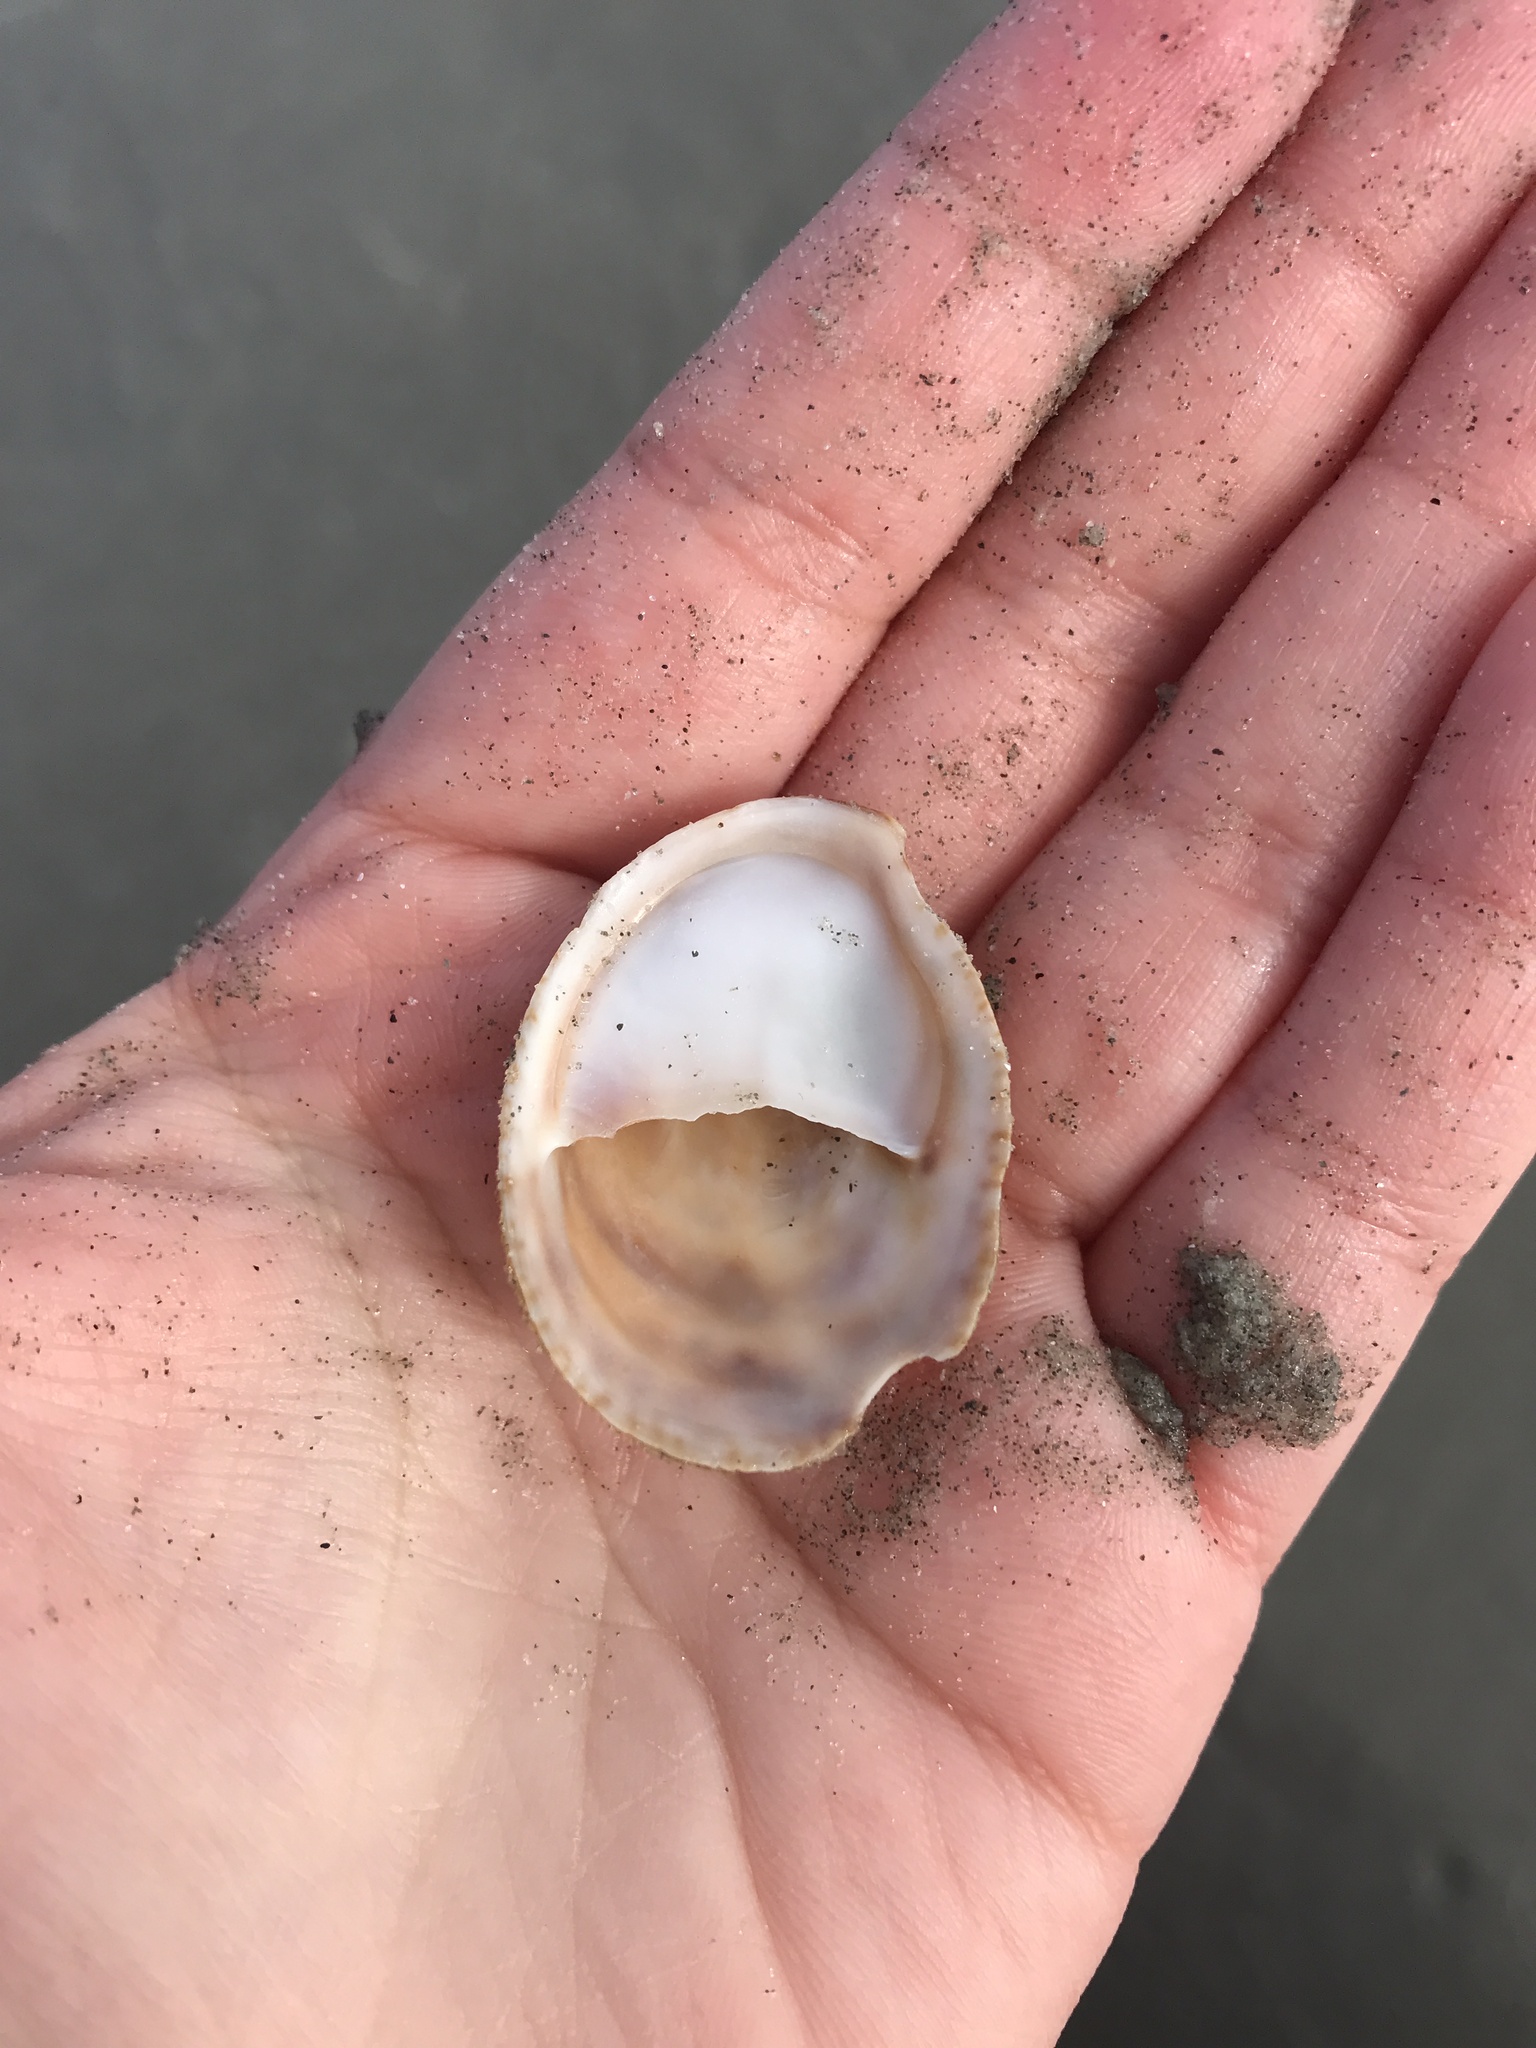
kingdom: Animalia
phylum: Mollusca
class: Gastropoda
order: Littorinimorpha
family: Calyptraeidae
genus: Crepidula
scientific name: Crepidula fornicata
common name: Slipper limpet
